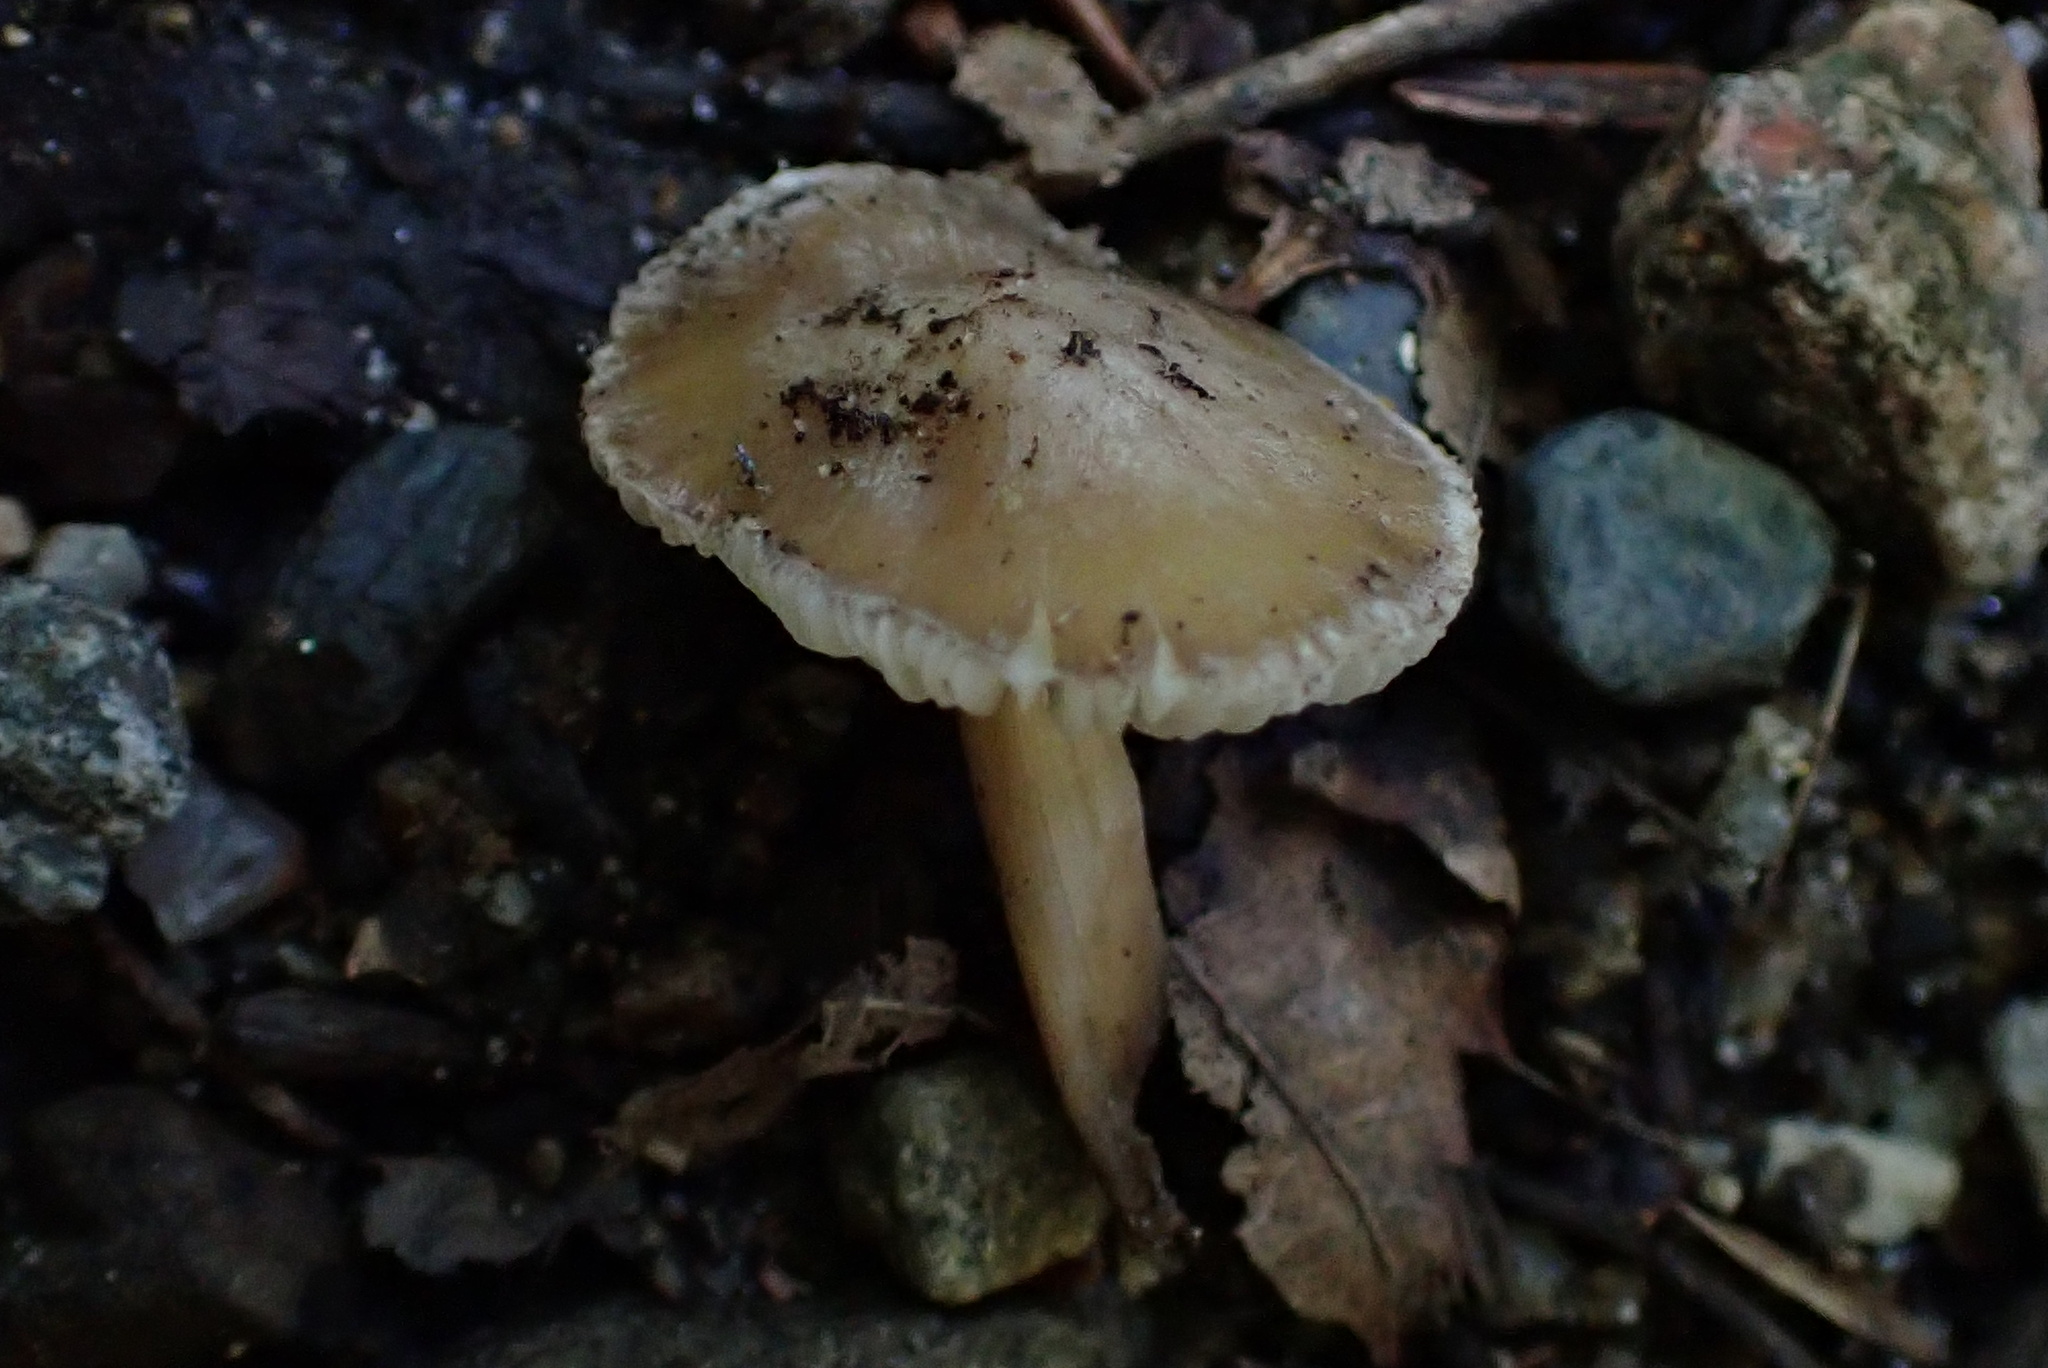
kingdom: Fungi
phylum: Basidiomycota
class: Agaricomycetes
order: Agaricales
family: Inocybaceae
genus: Inocybe
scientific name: Inocybe acriolens
